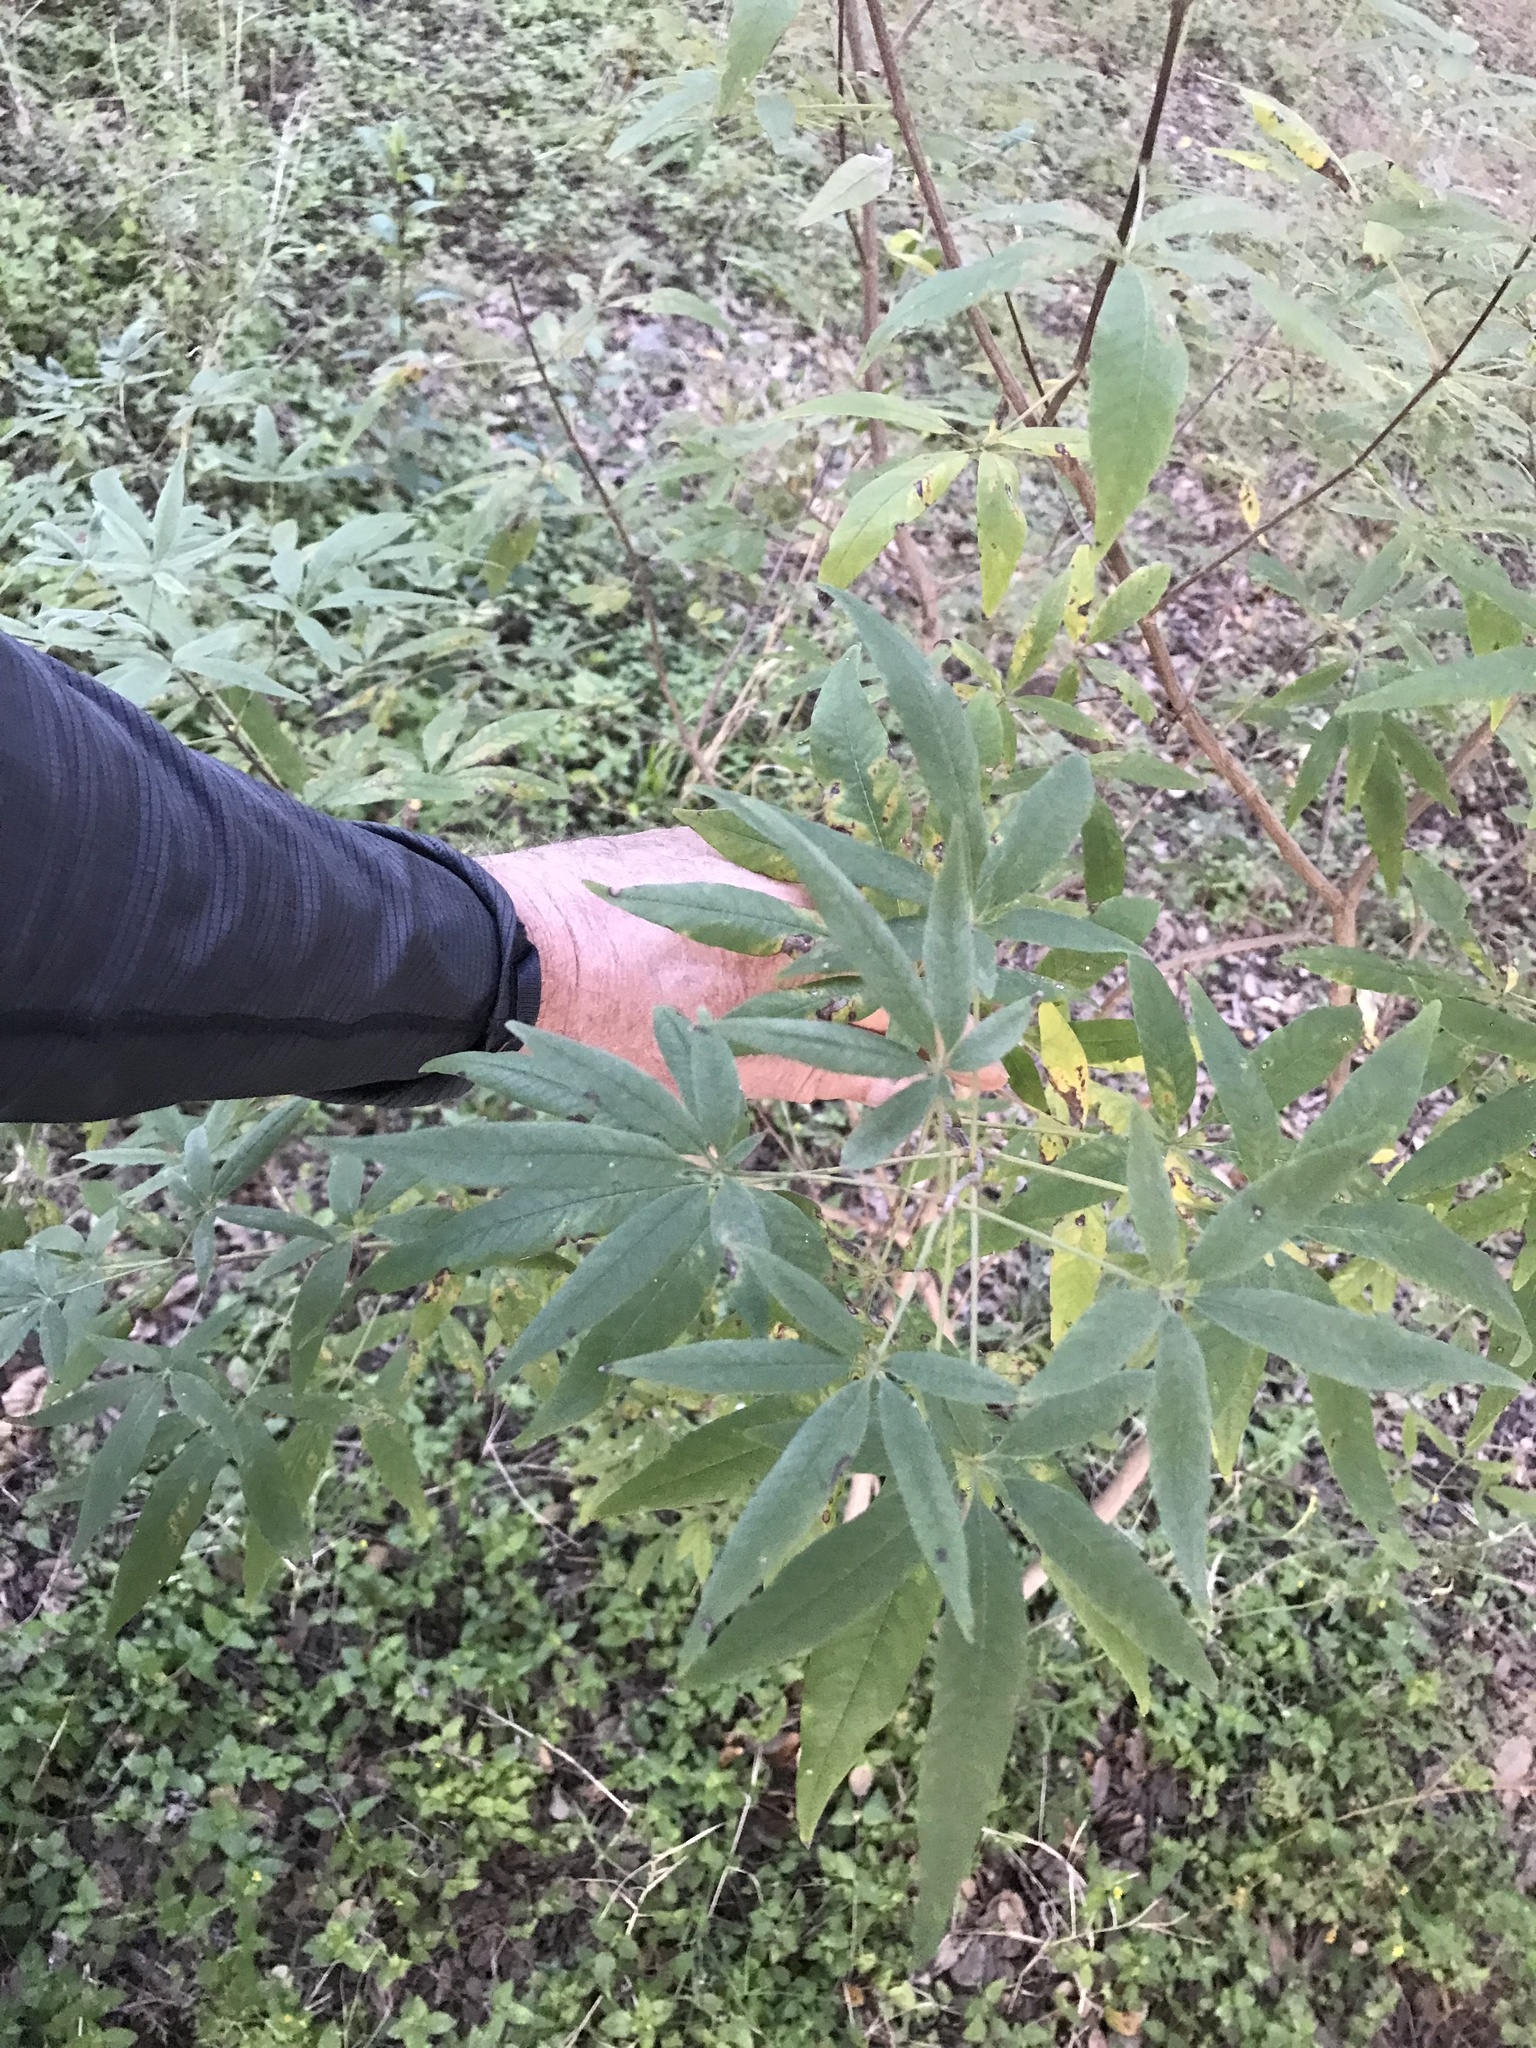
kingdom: Plantae
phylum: Tracheophyta
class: Magnoliopsida
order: Lamiales
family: Lamiaceae
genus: Vitex
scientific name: Vitex agnus-castus
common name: Chasteberry
